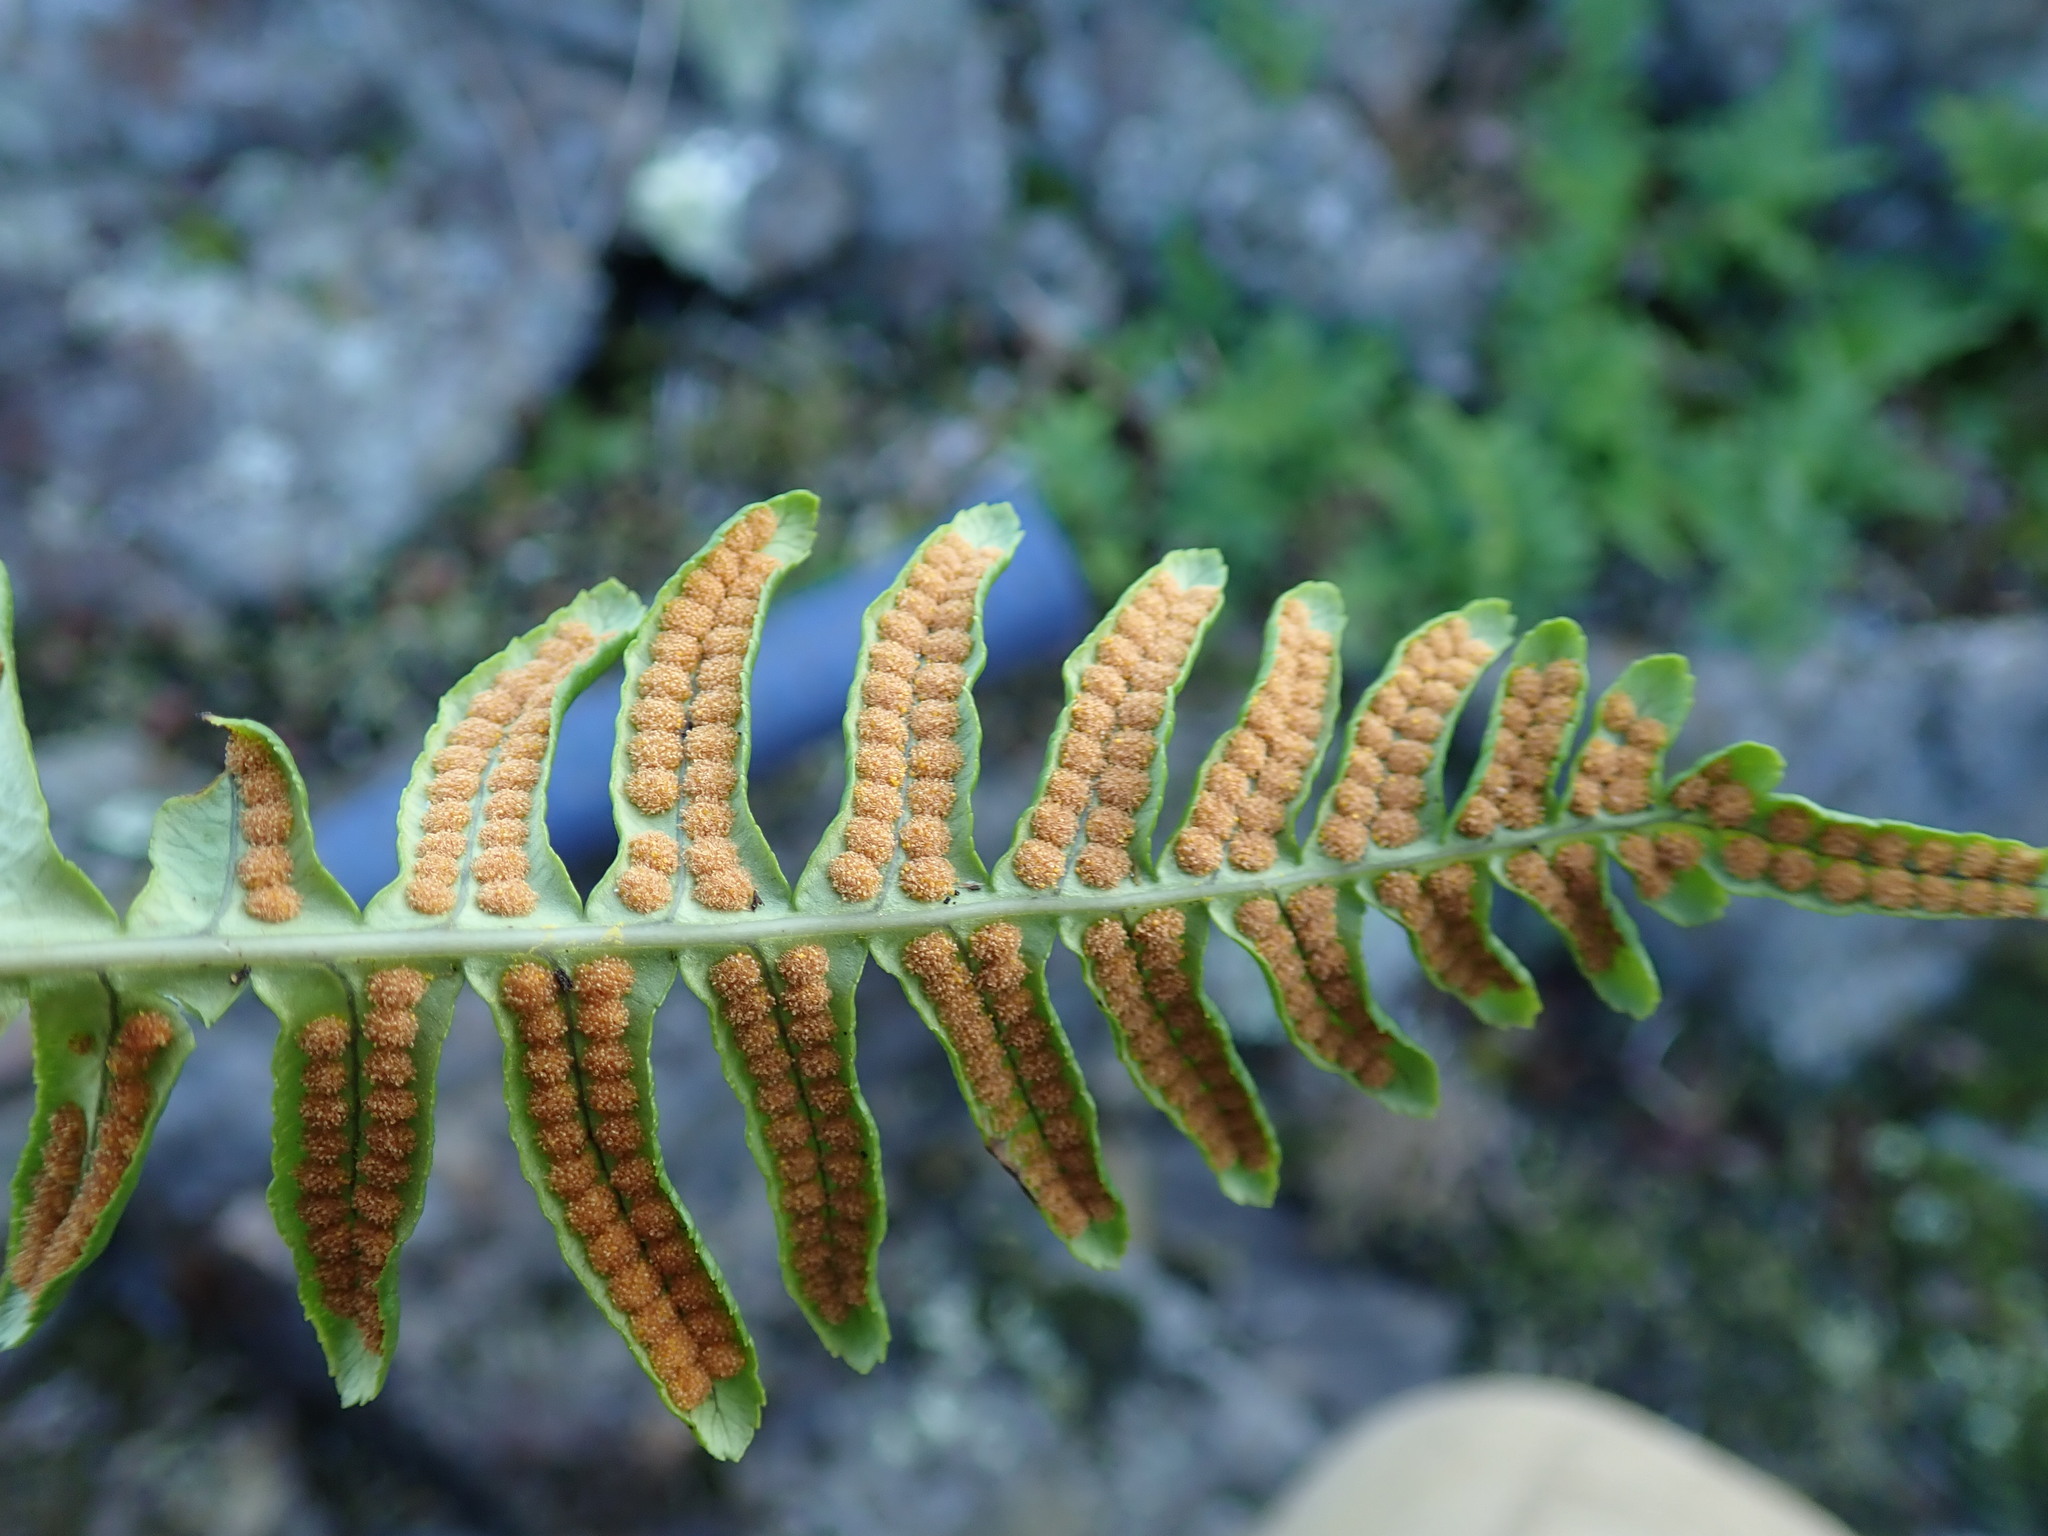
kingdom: Plantae
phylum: Tracheophyta
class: Polypodiopsida
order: Polypodiales
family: Polypodiaceae
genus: Polypodium
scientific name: Polypodium glycyrrhiza
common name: Licorice fern
